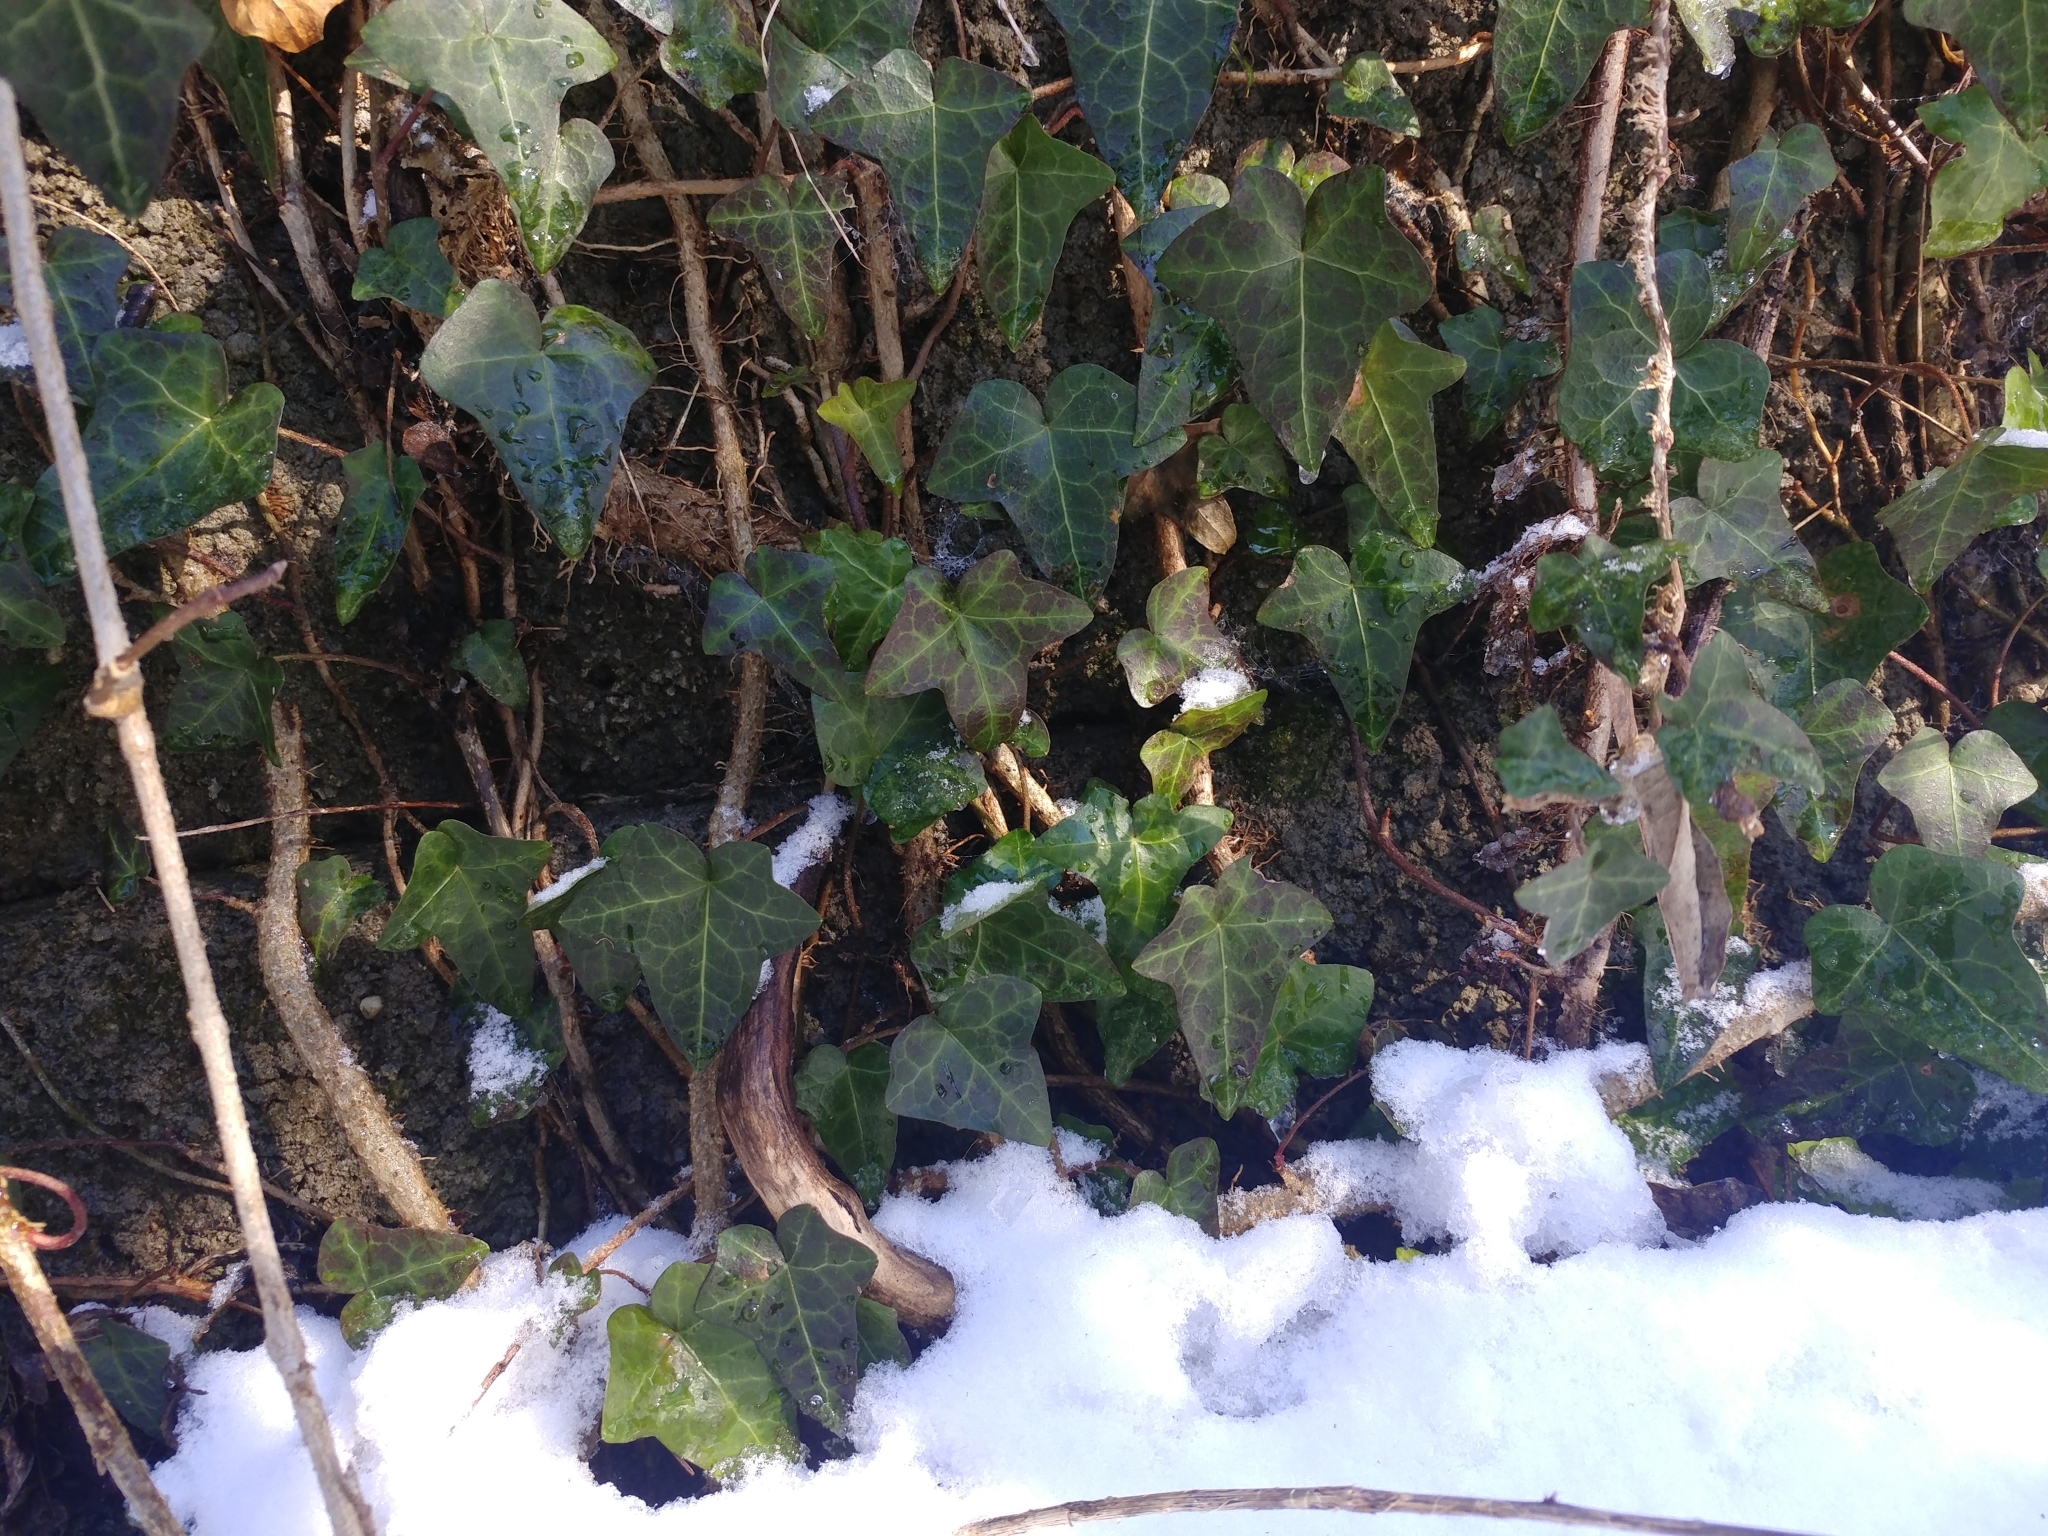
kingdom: Plantae
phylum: Tracheophyta
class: Magnoliopsida
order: Apiales
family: Araliaceae
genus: Hedera
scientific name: Hedera helix
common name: Ivy
